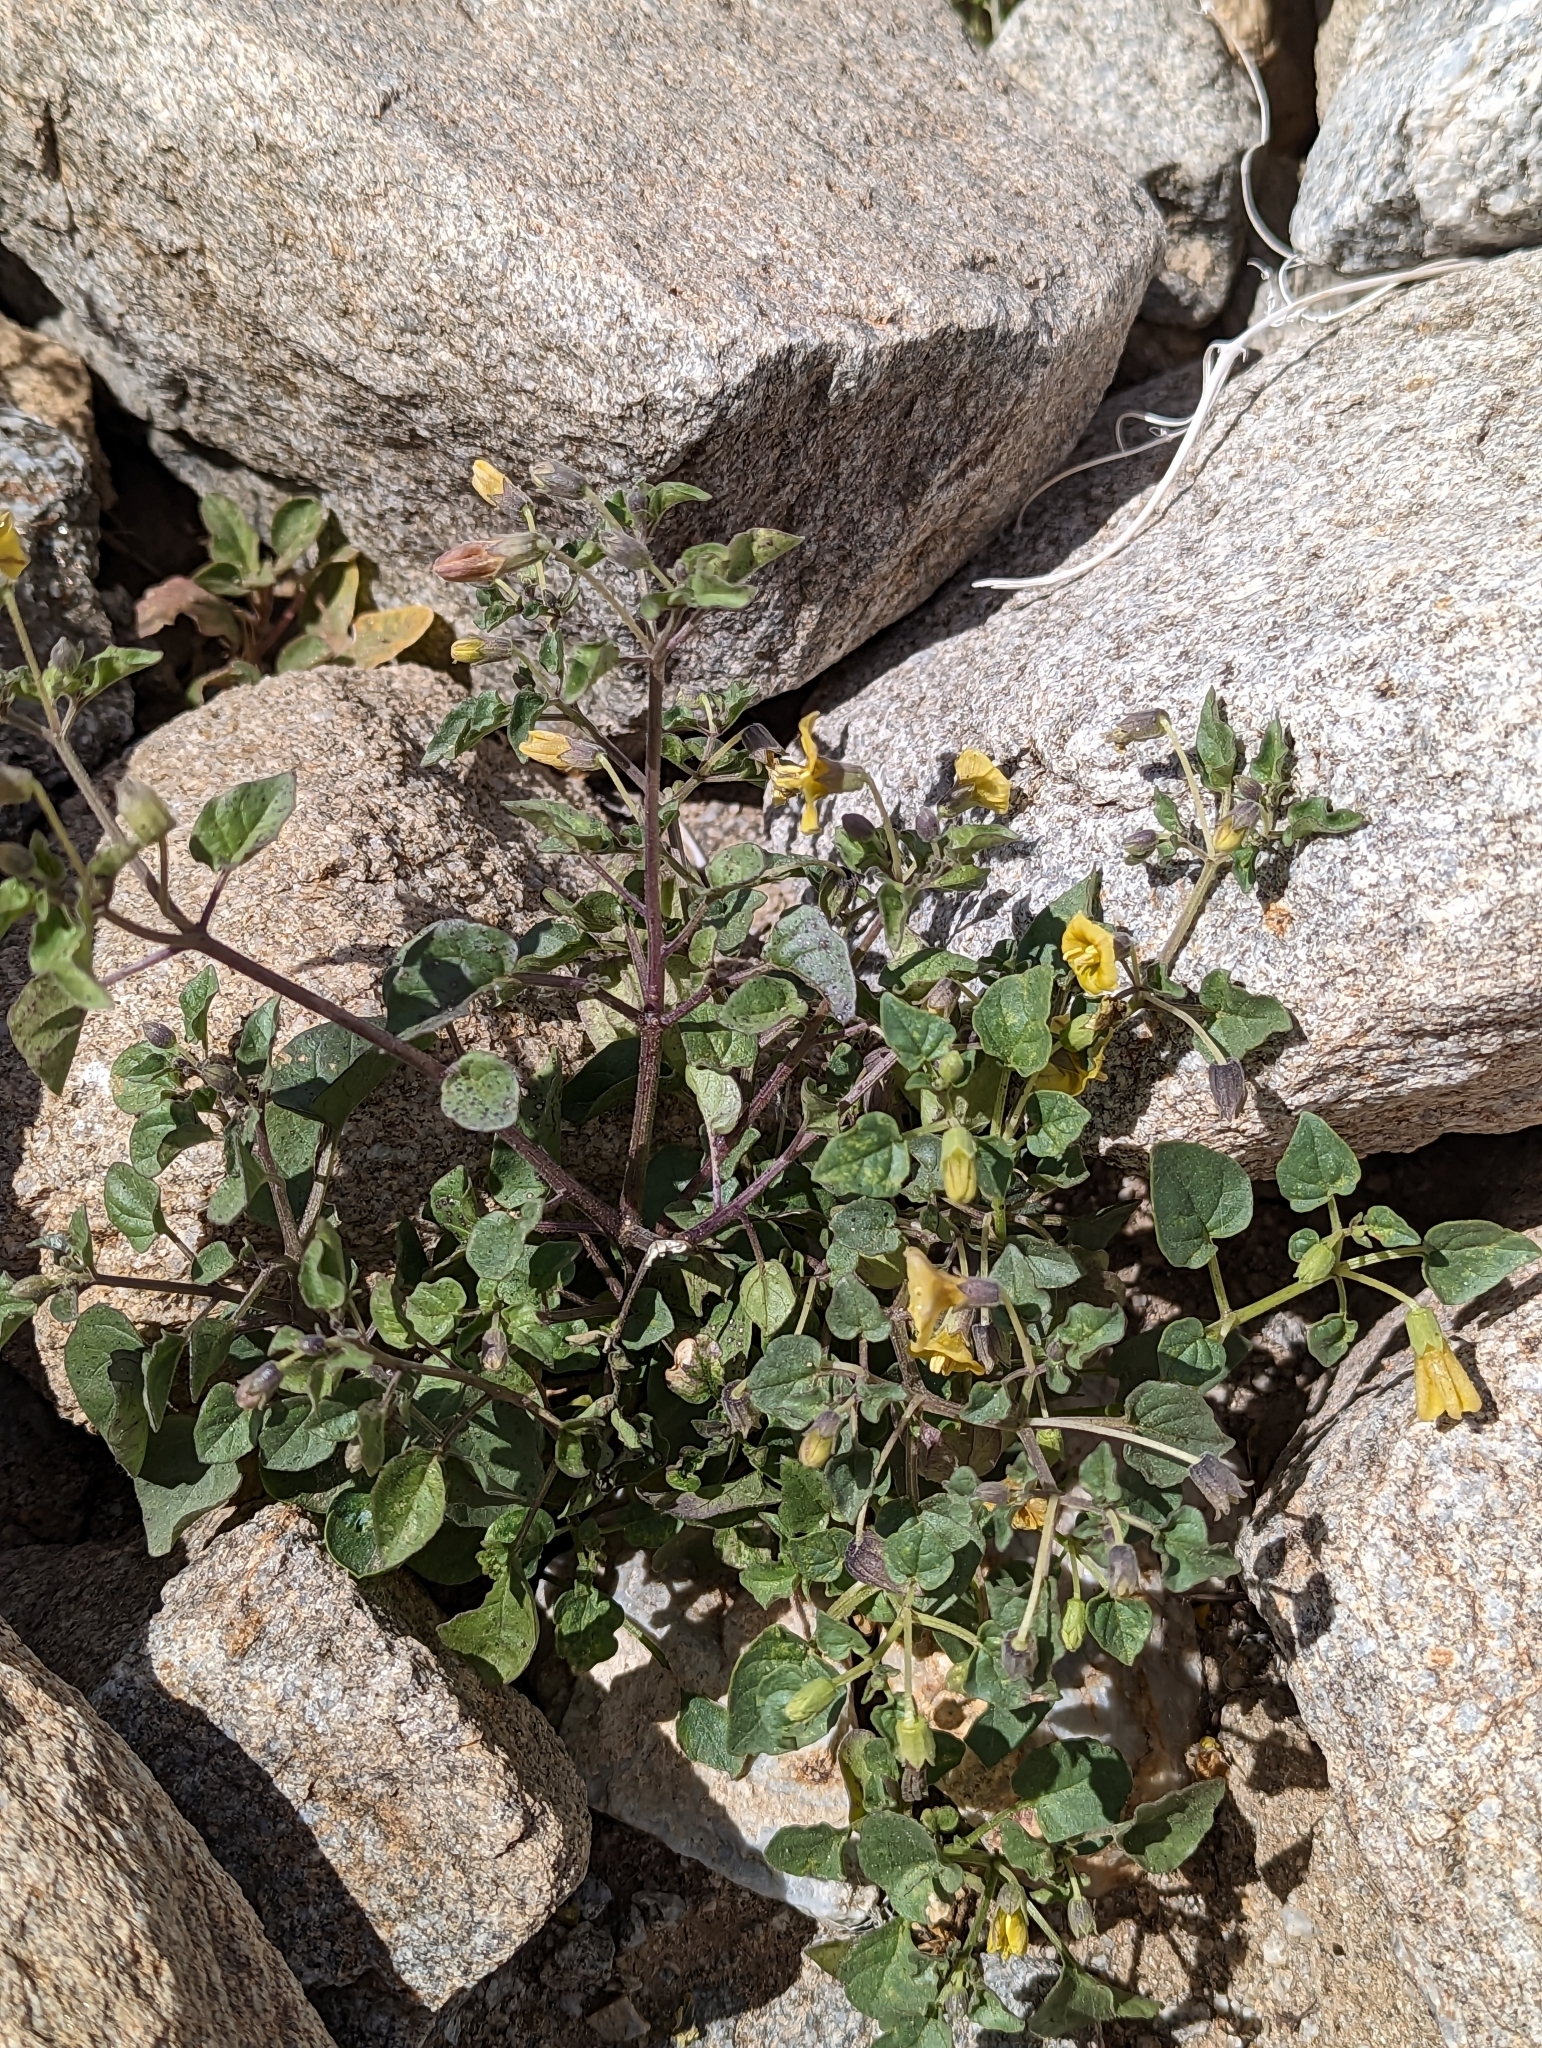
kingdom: Plantae
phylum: Tracheophyta
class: Magnoliopsida
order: Solanales
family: Solanaceae
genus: Physalis
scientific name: Physalis crassifolia
